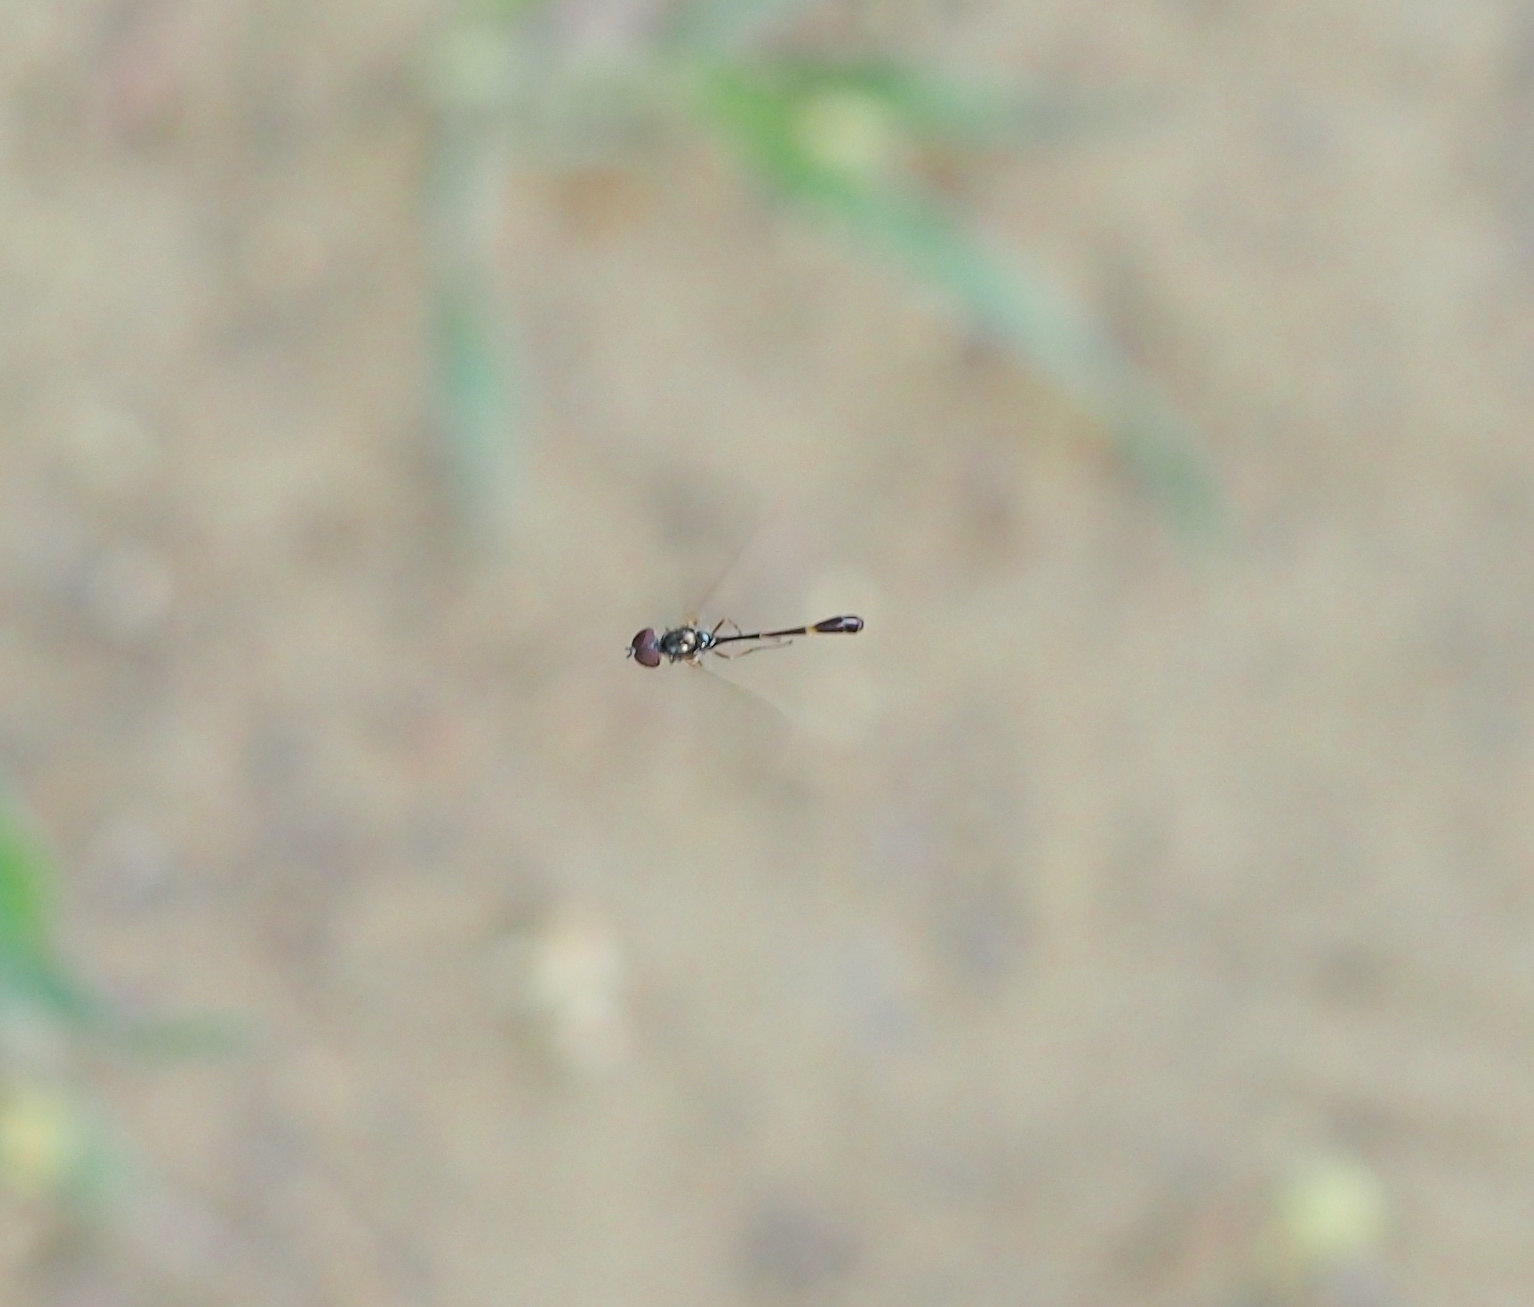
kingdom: Animalia
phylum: Arthropoda
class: Insecta
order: Diptera
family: Syrphidae
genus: Baccha
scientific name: Baccha elongata
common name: Common dainty
